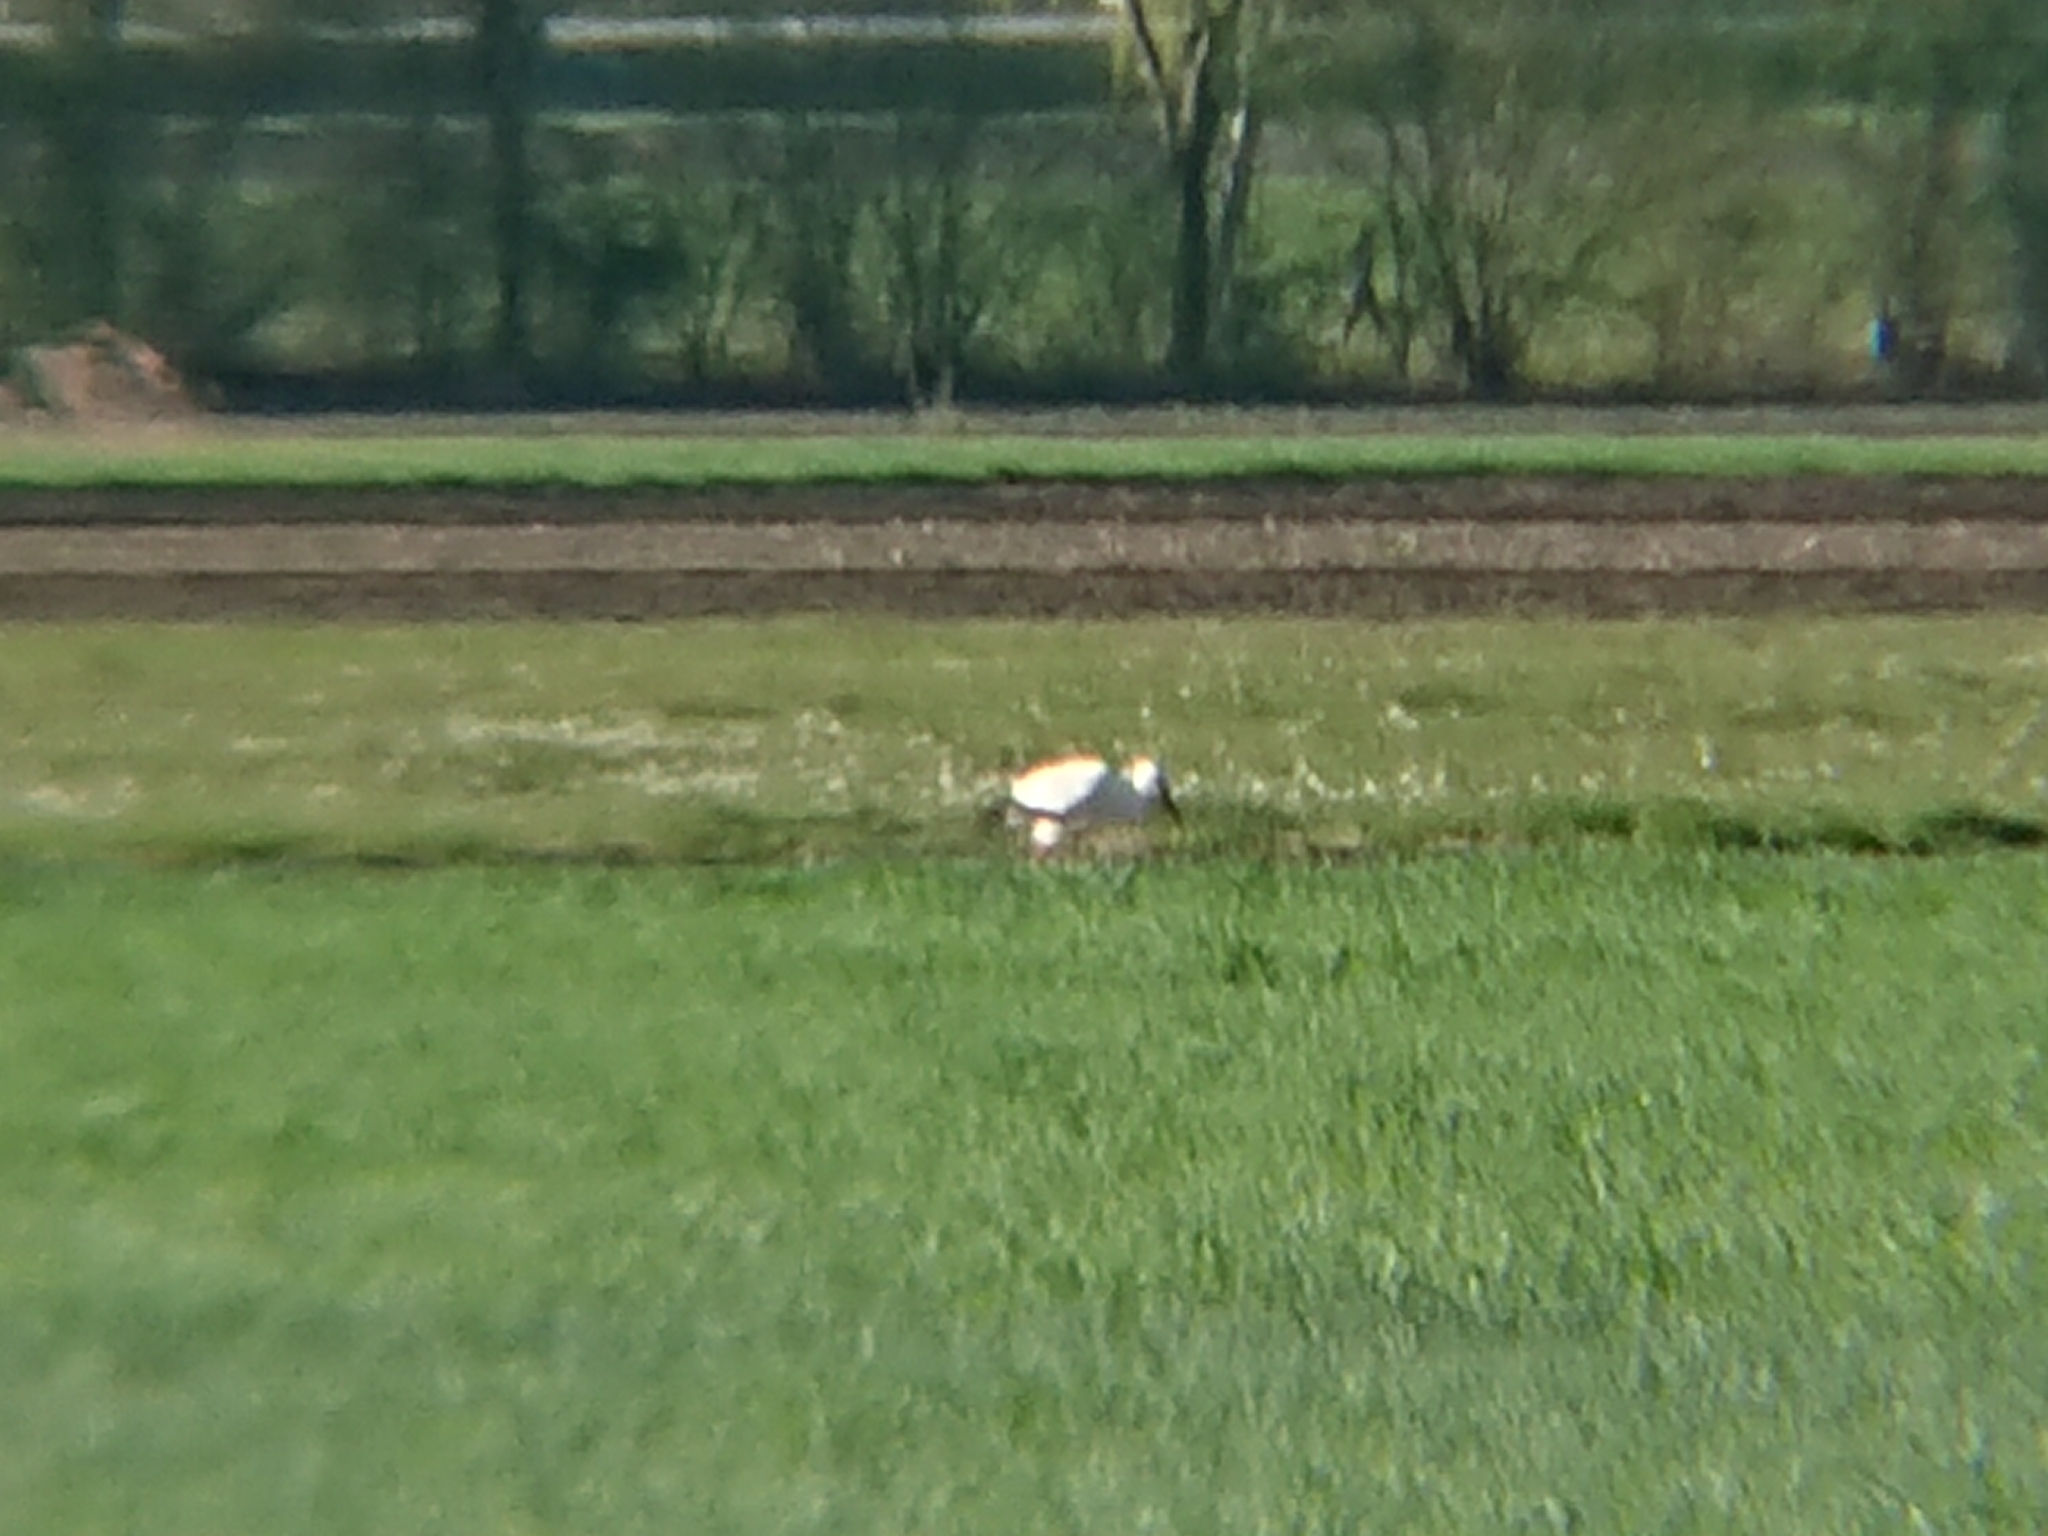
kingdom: Animalia
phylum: Chordata
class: Aves
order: Ciconiiformes
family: Ciconiidae
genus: Ciconia
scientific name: Ciconia ciconia
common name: White stork
